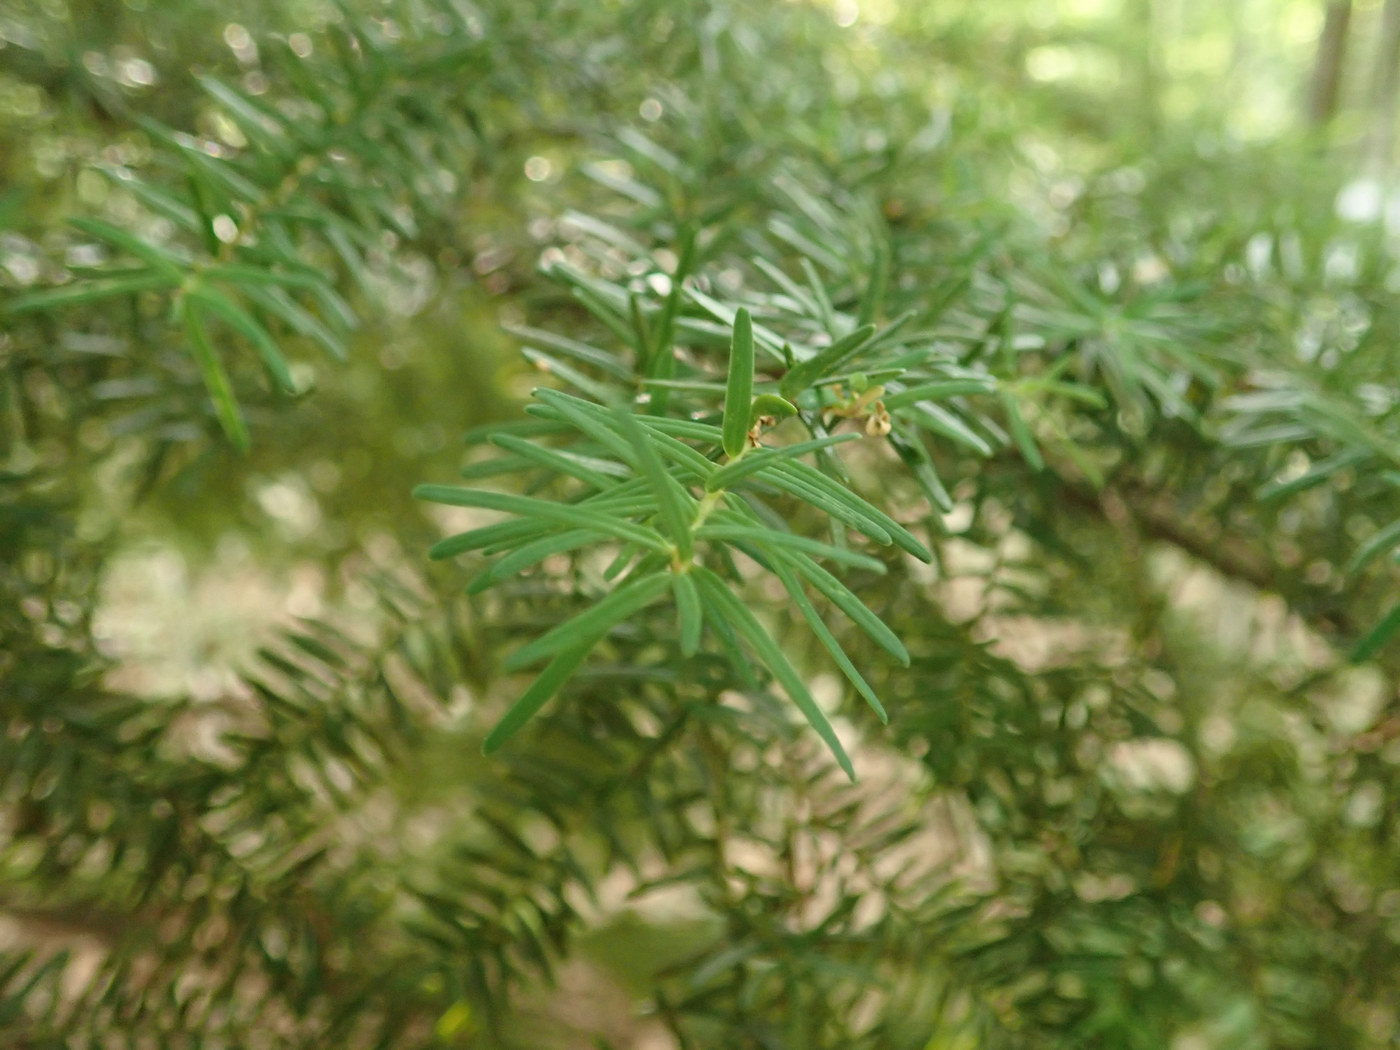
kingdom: Plantae
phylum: Tracheophyta
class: Pinopsida
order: Pinales
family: Pinaceae
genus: Tsuga
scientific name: Tsuga caroliniana
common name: Carolina hemlock
